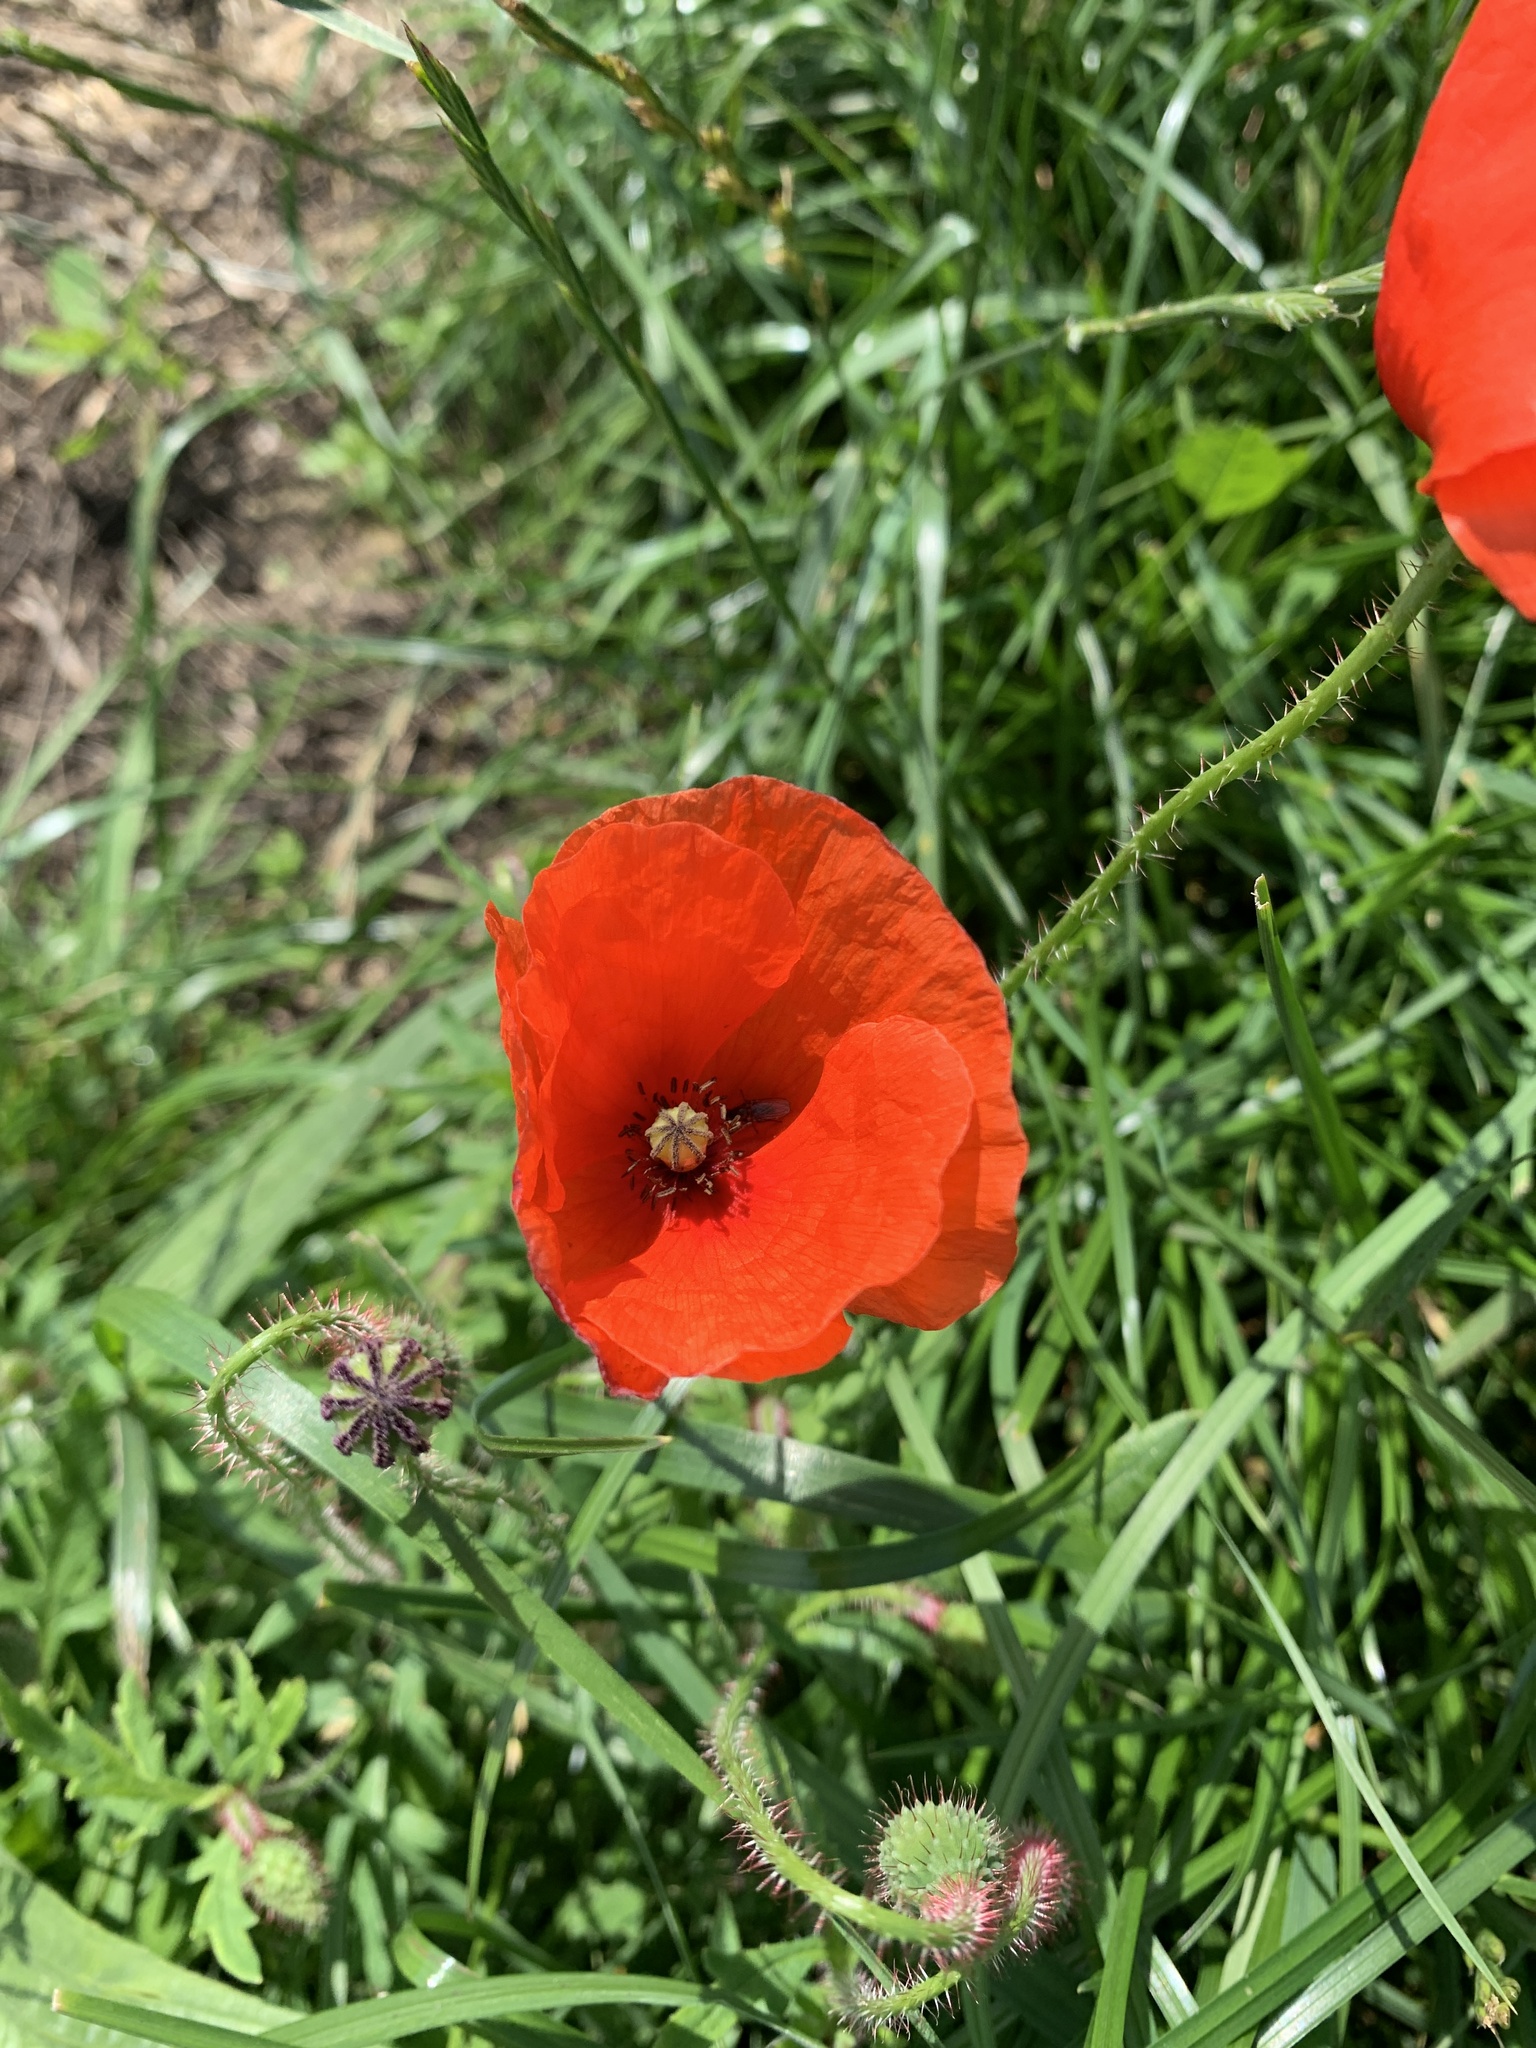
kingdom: Plantae
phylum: Tracheophyta
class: Magnoliopsida
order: Ranunculales
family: Papaveraceae
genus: Papaver
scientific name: Papaver rhoeas
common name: Corn poppy
